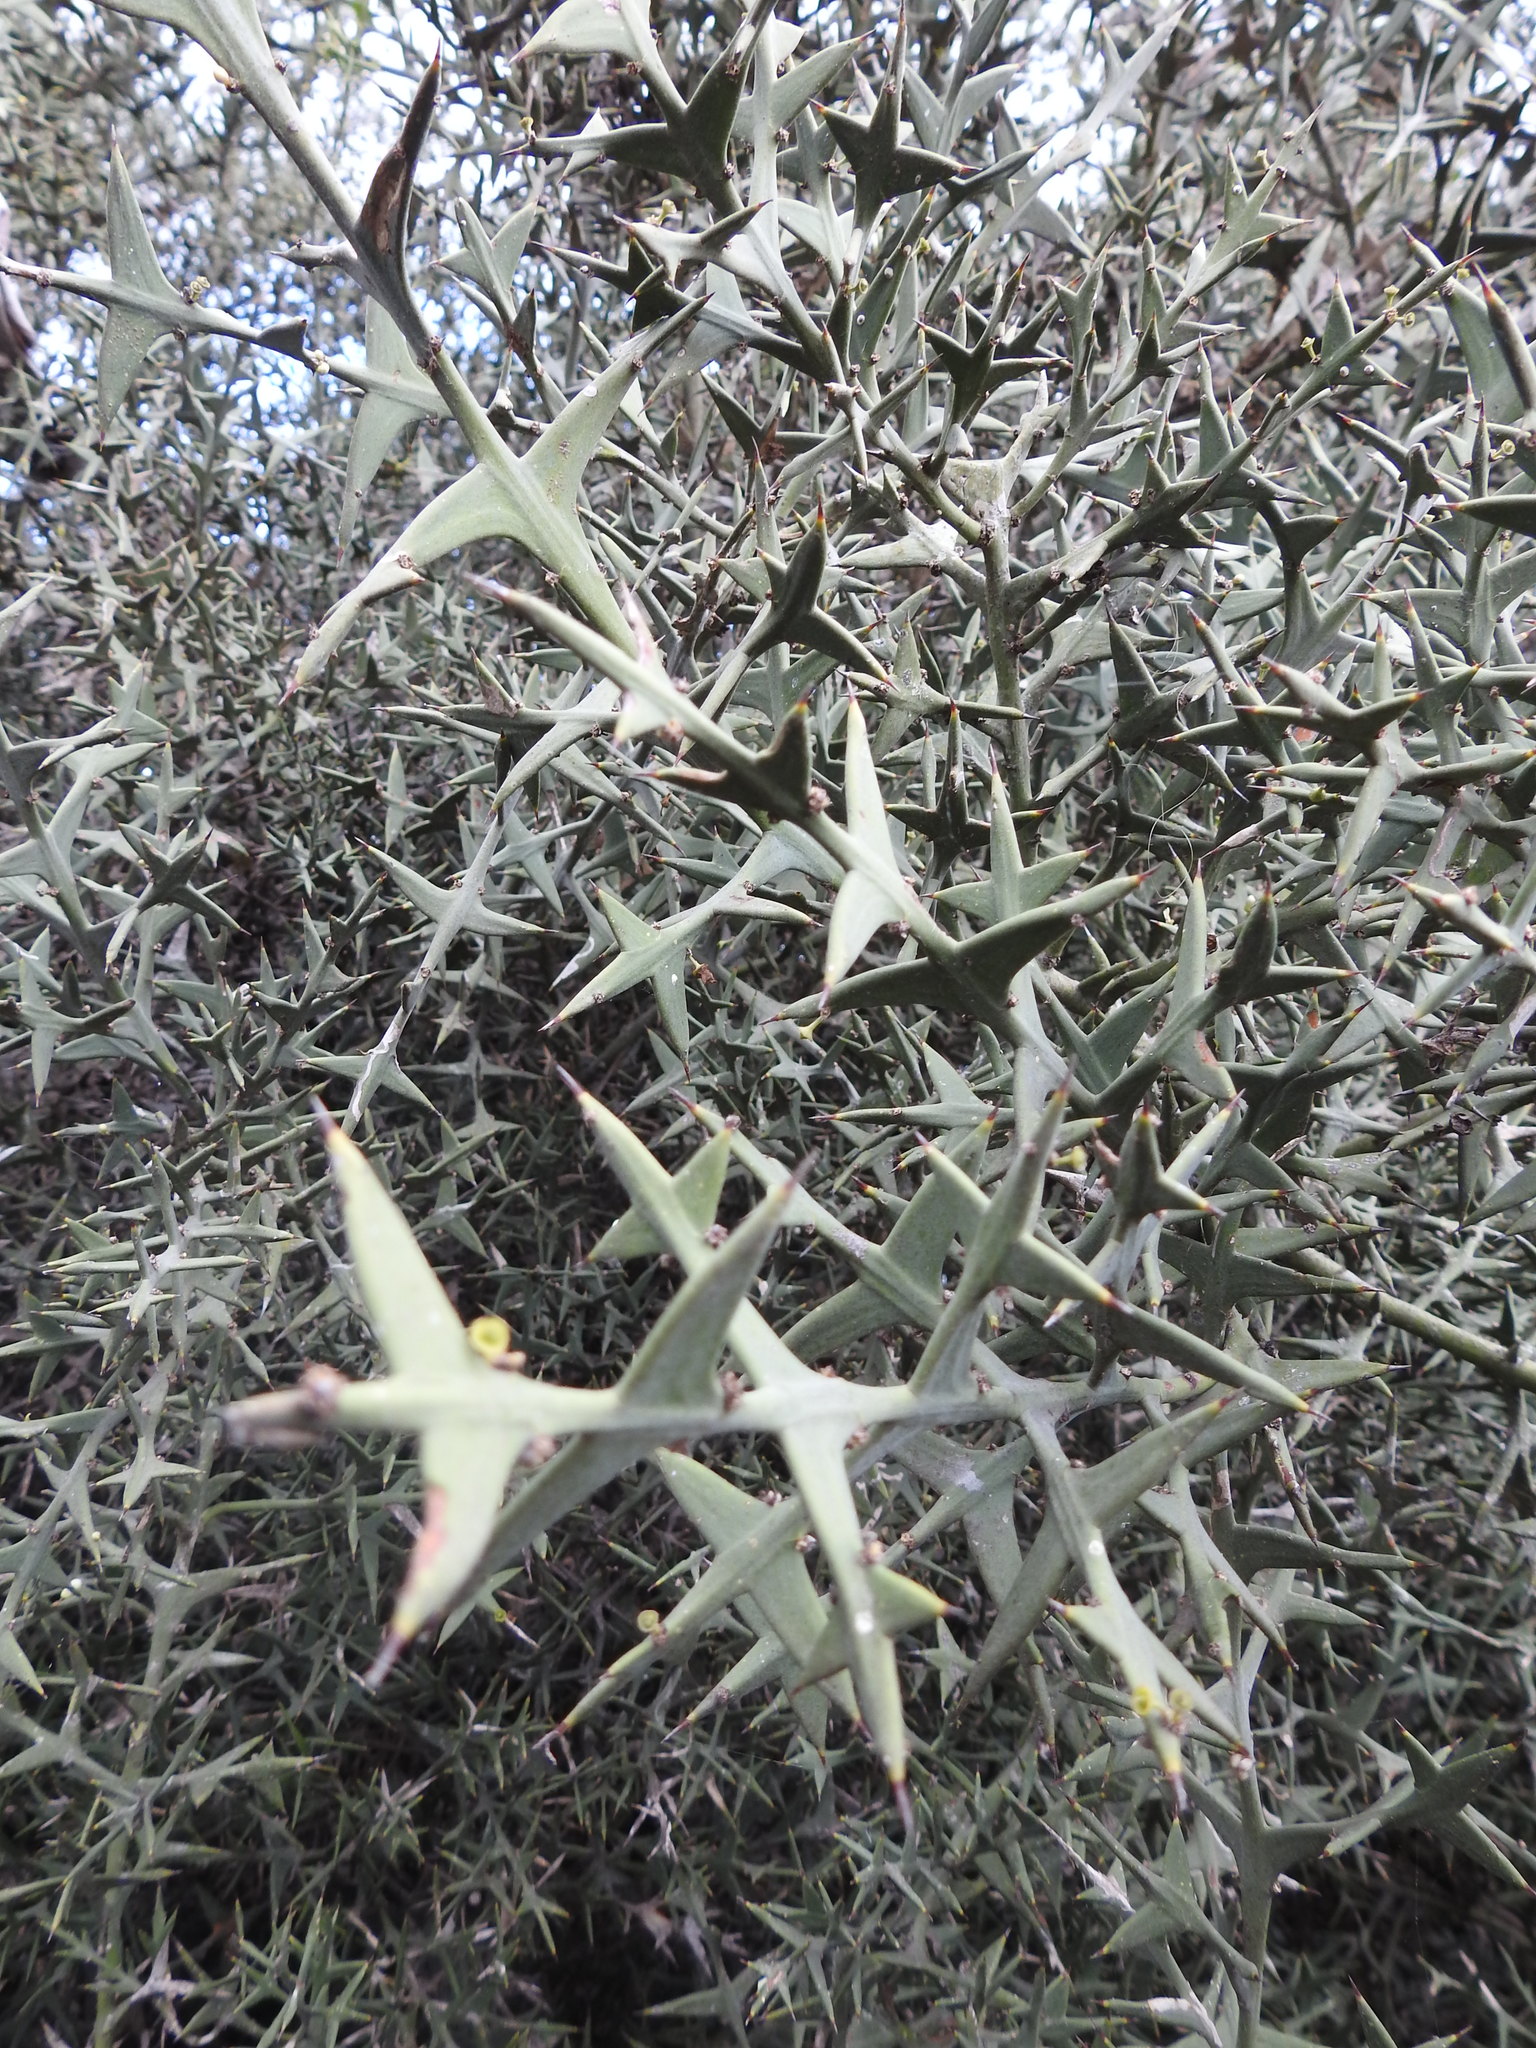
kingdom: Plantae
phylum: Tracheophyta
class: Magnoliopsida
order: Rosales
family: Rhamnaceae
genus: Colletia
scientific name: Colletia paradoxa
